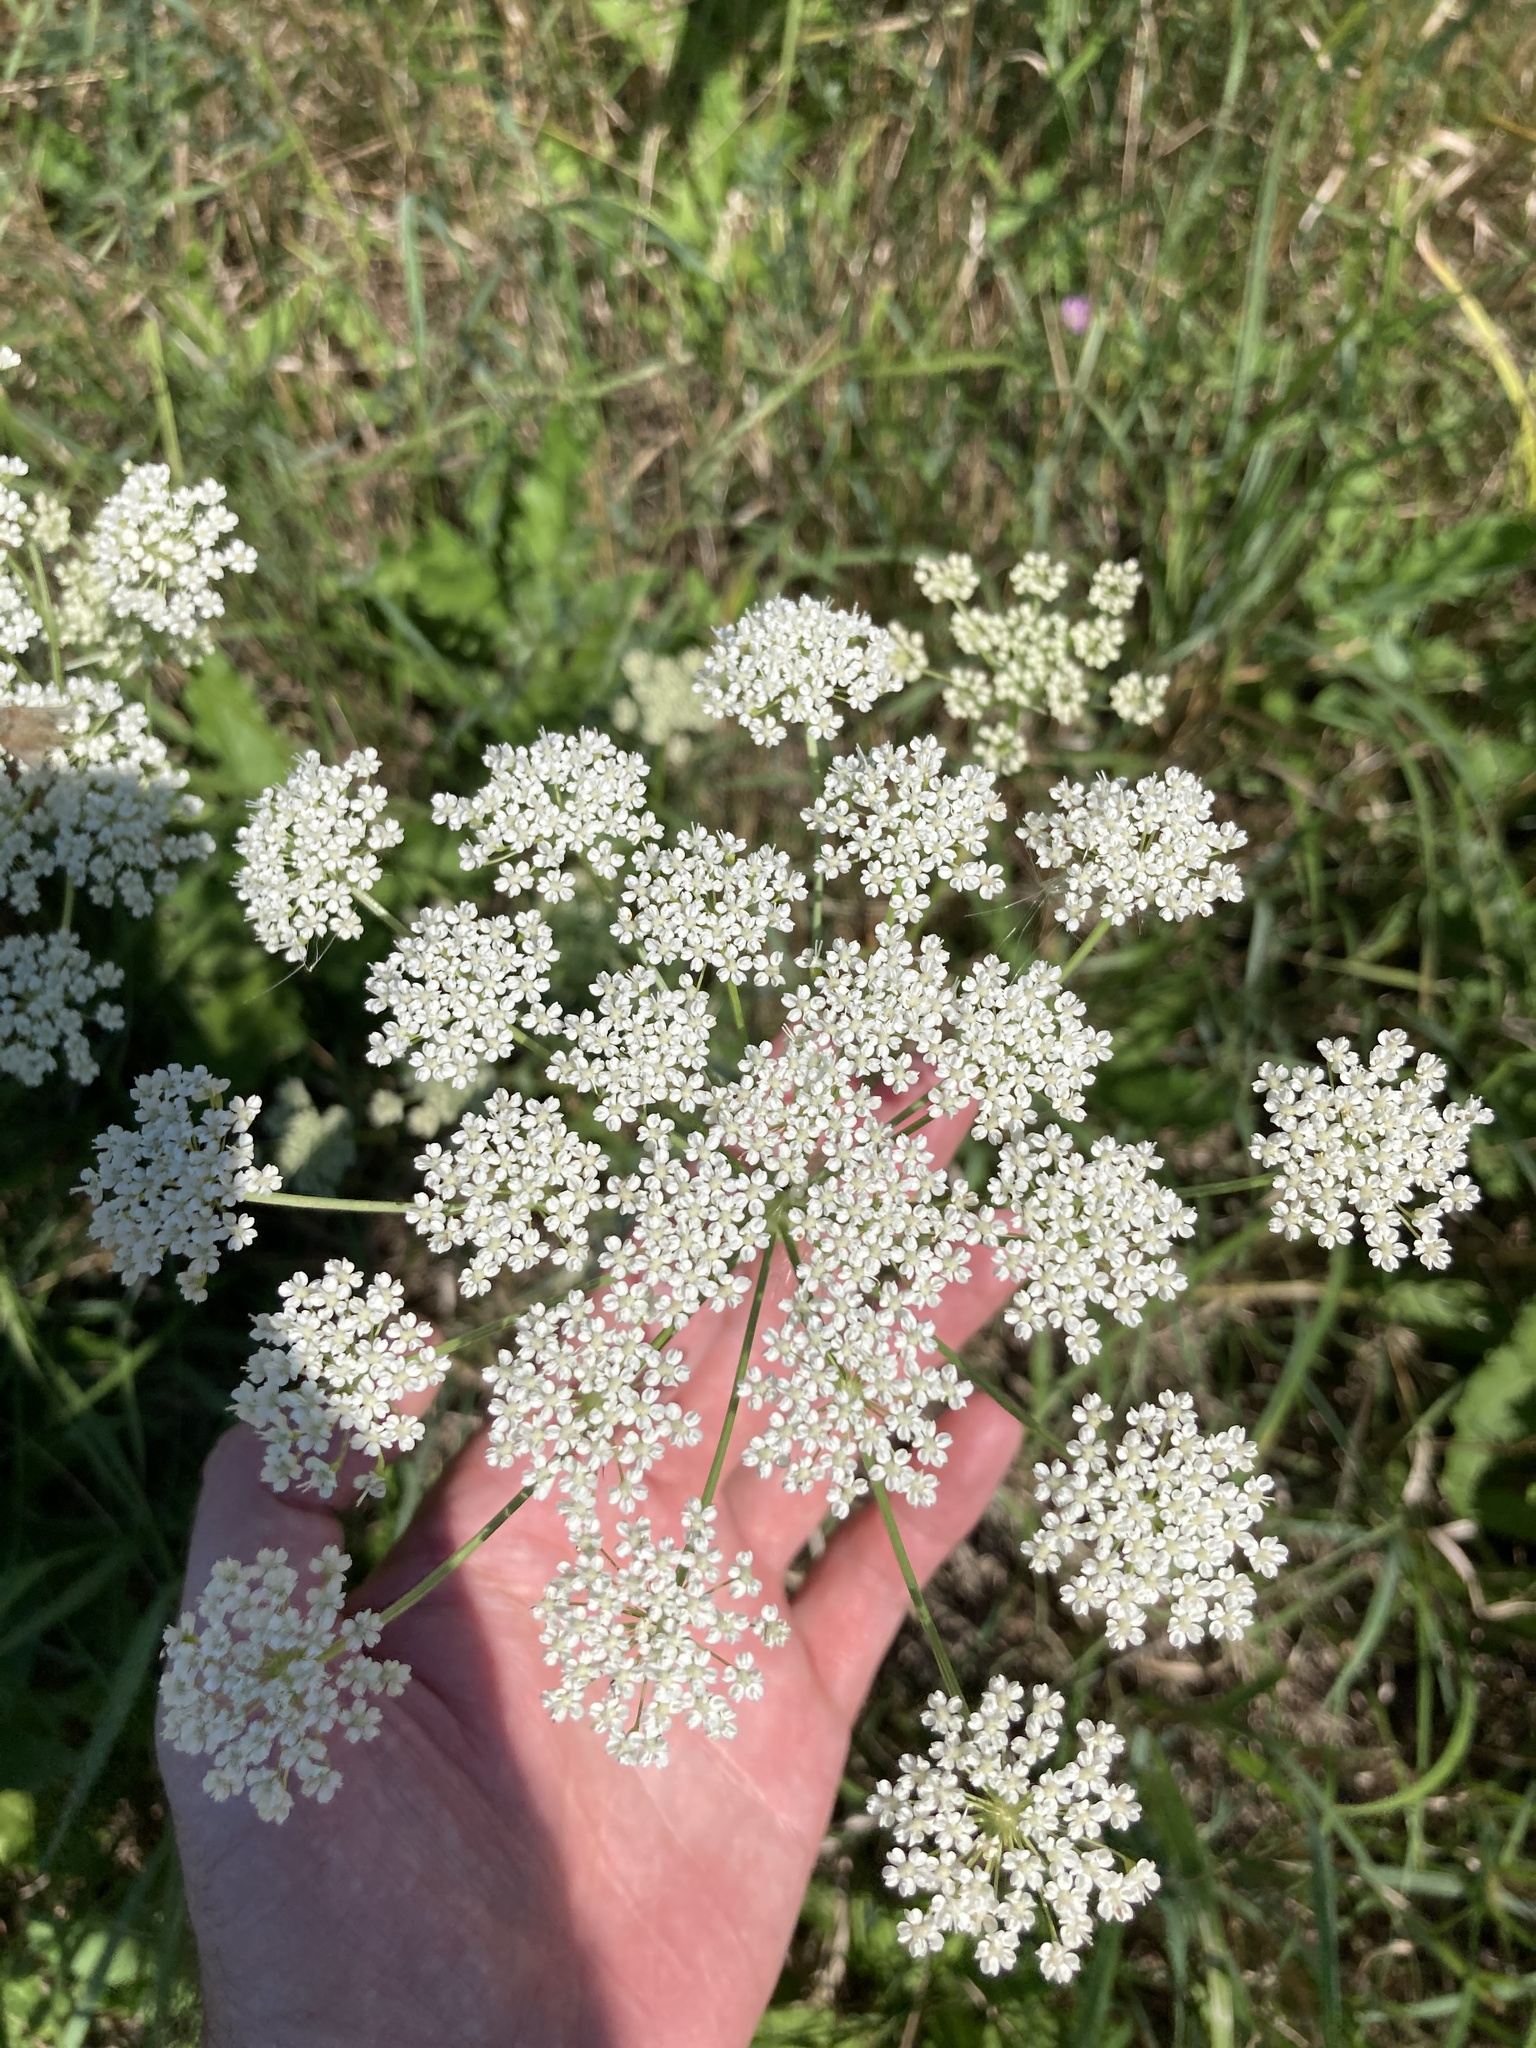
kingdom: Plantae
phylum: Tracheophyta
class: Magnoliopsida
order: Apiales
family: Apiaceae
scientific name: Apiaceae
